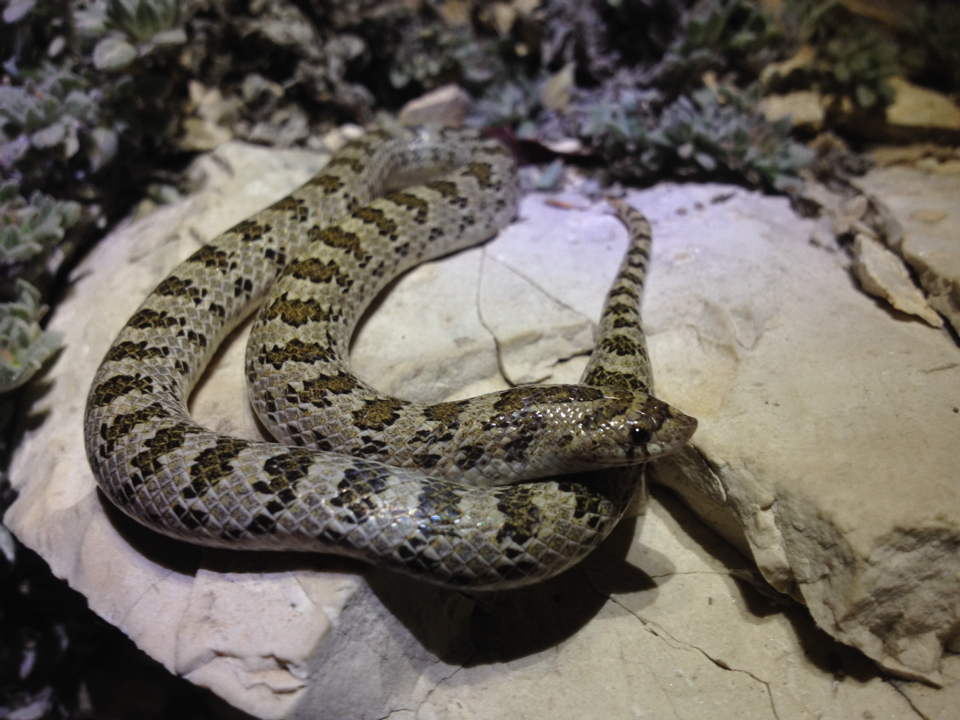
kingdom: Animalia
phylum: Chordata
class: Squamata
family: Colubridae
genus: Gyalopion
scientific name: Gyalopion canum
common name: Chihuahuan hook-nosed snake
